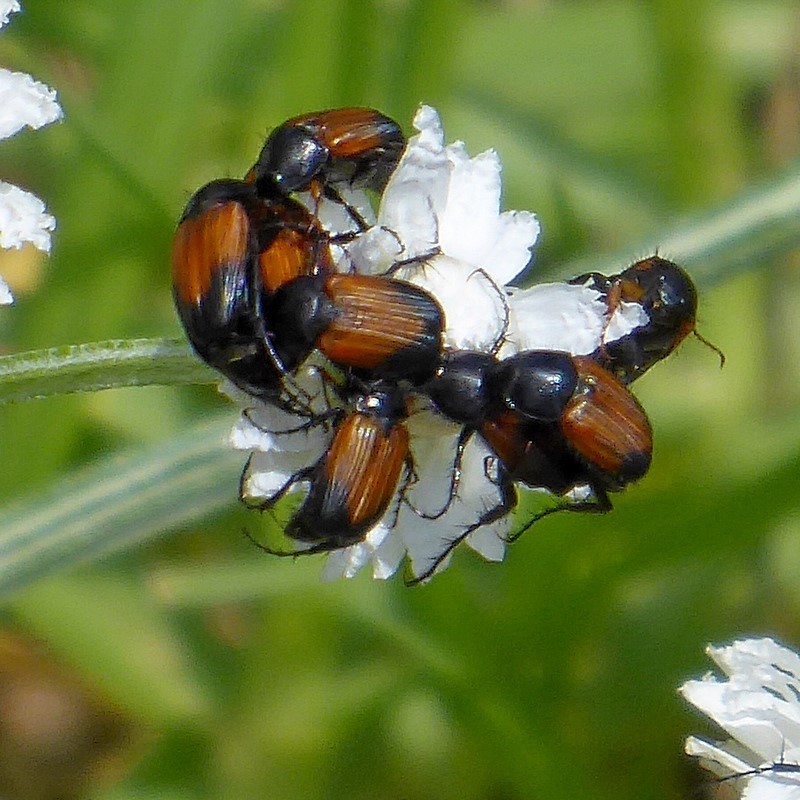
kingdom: Animalia
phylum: Arthropoda
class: Insecta
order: Coleoptera
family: Scarabaeidae
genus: Phyllotocus
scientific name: Phyllotocus navicularis
